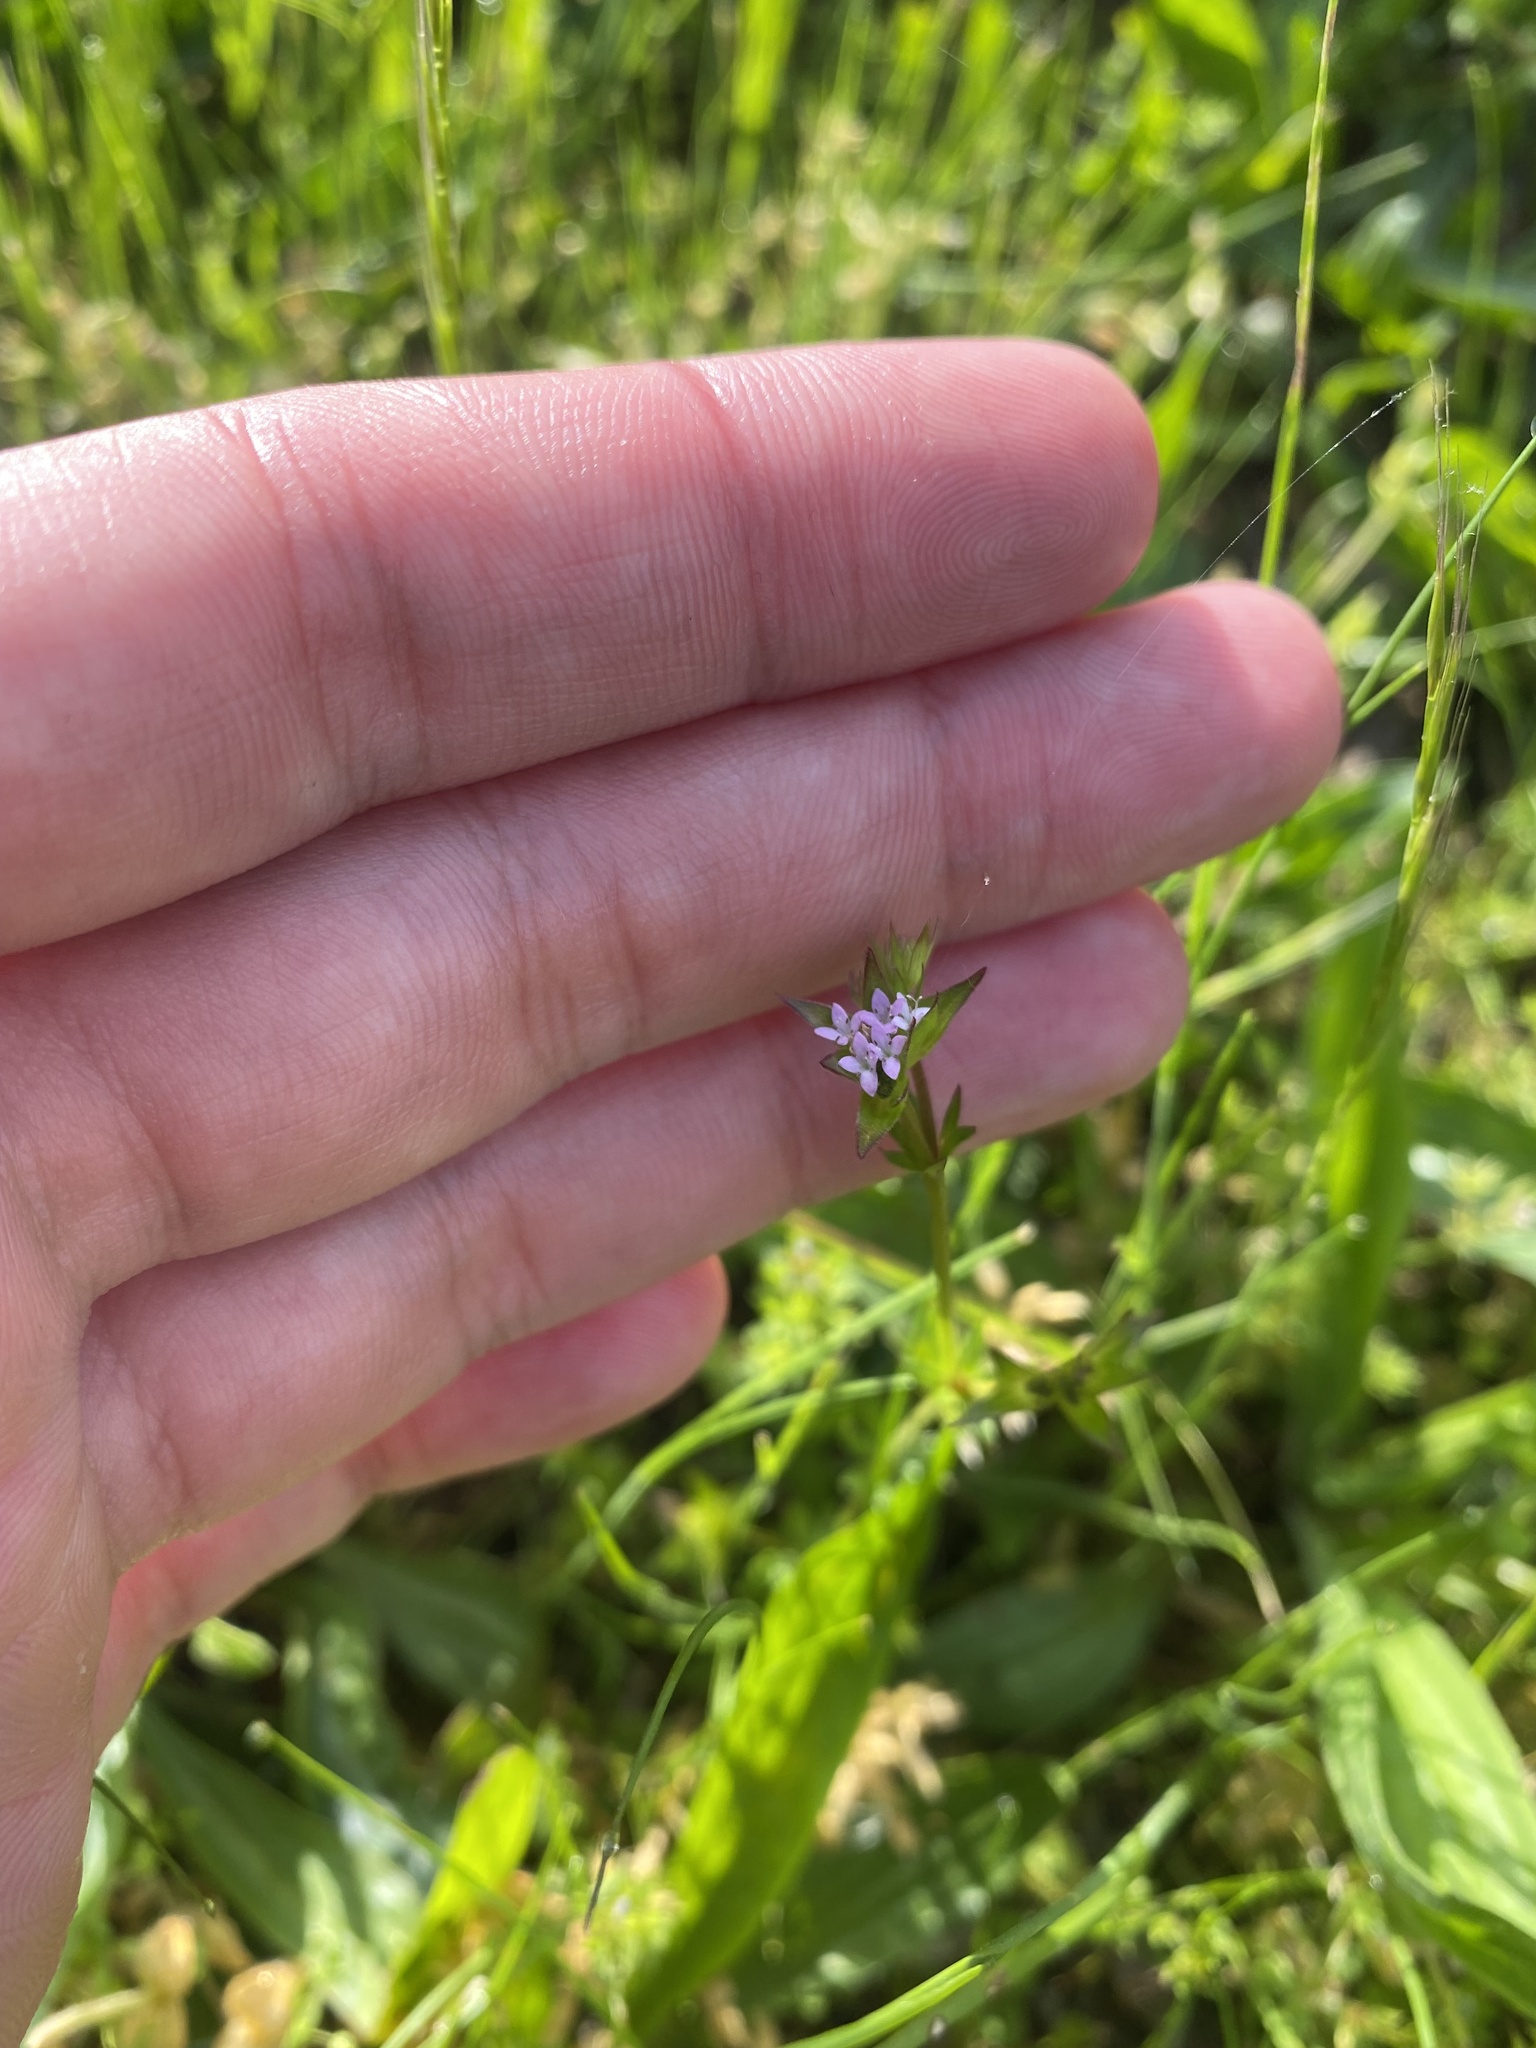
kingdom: Plantae
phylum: Tracheophyta
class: Magnoliopsida
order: Gentianales
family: Rubiaceae
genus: Sherardia
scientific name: Sherardia arvensis
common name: Field madder
